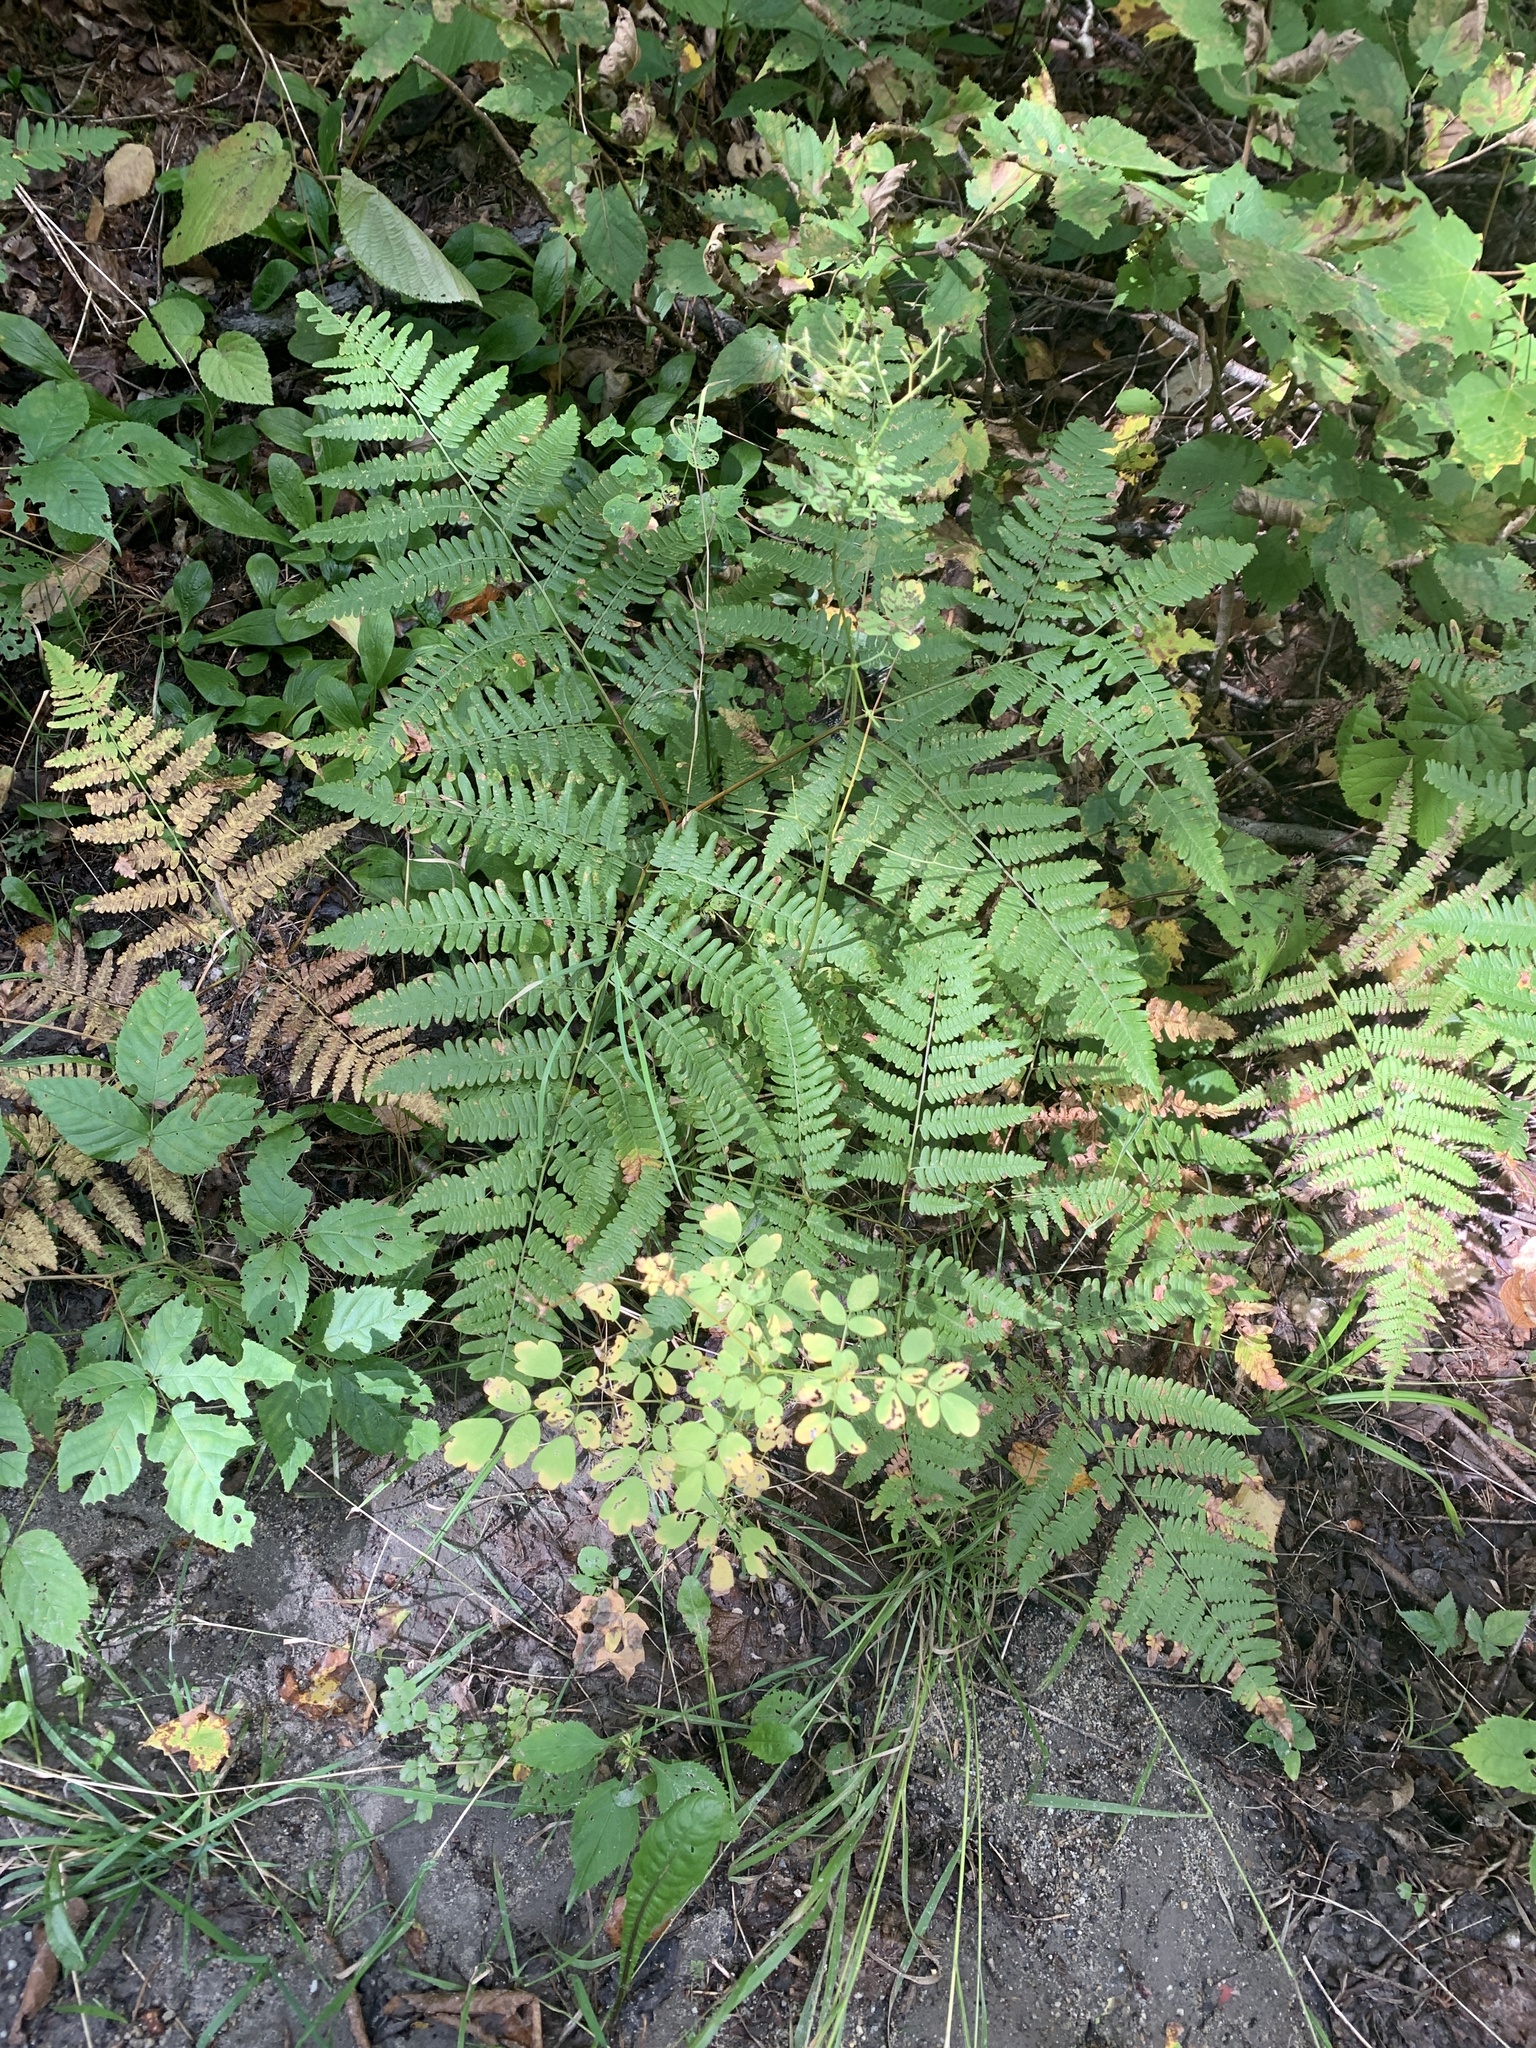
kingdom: Plantae
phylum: Tracheophyta
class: Magnoliopsida
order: Ranunculales
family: Ranunculaceae
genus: Thalictrum
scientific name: Thalictrum pubescens
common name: King-of-the-meadow
